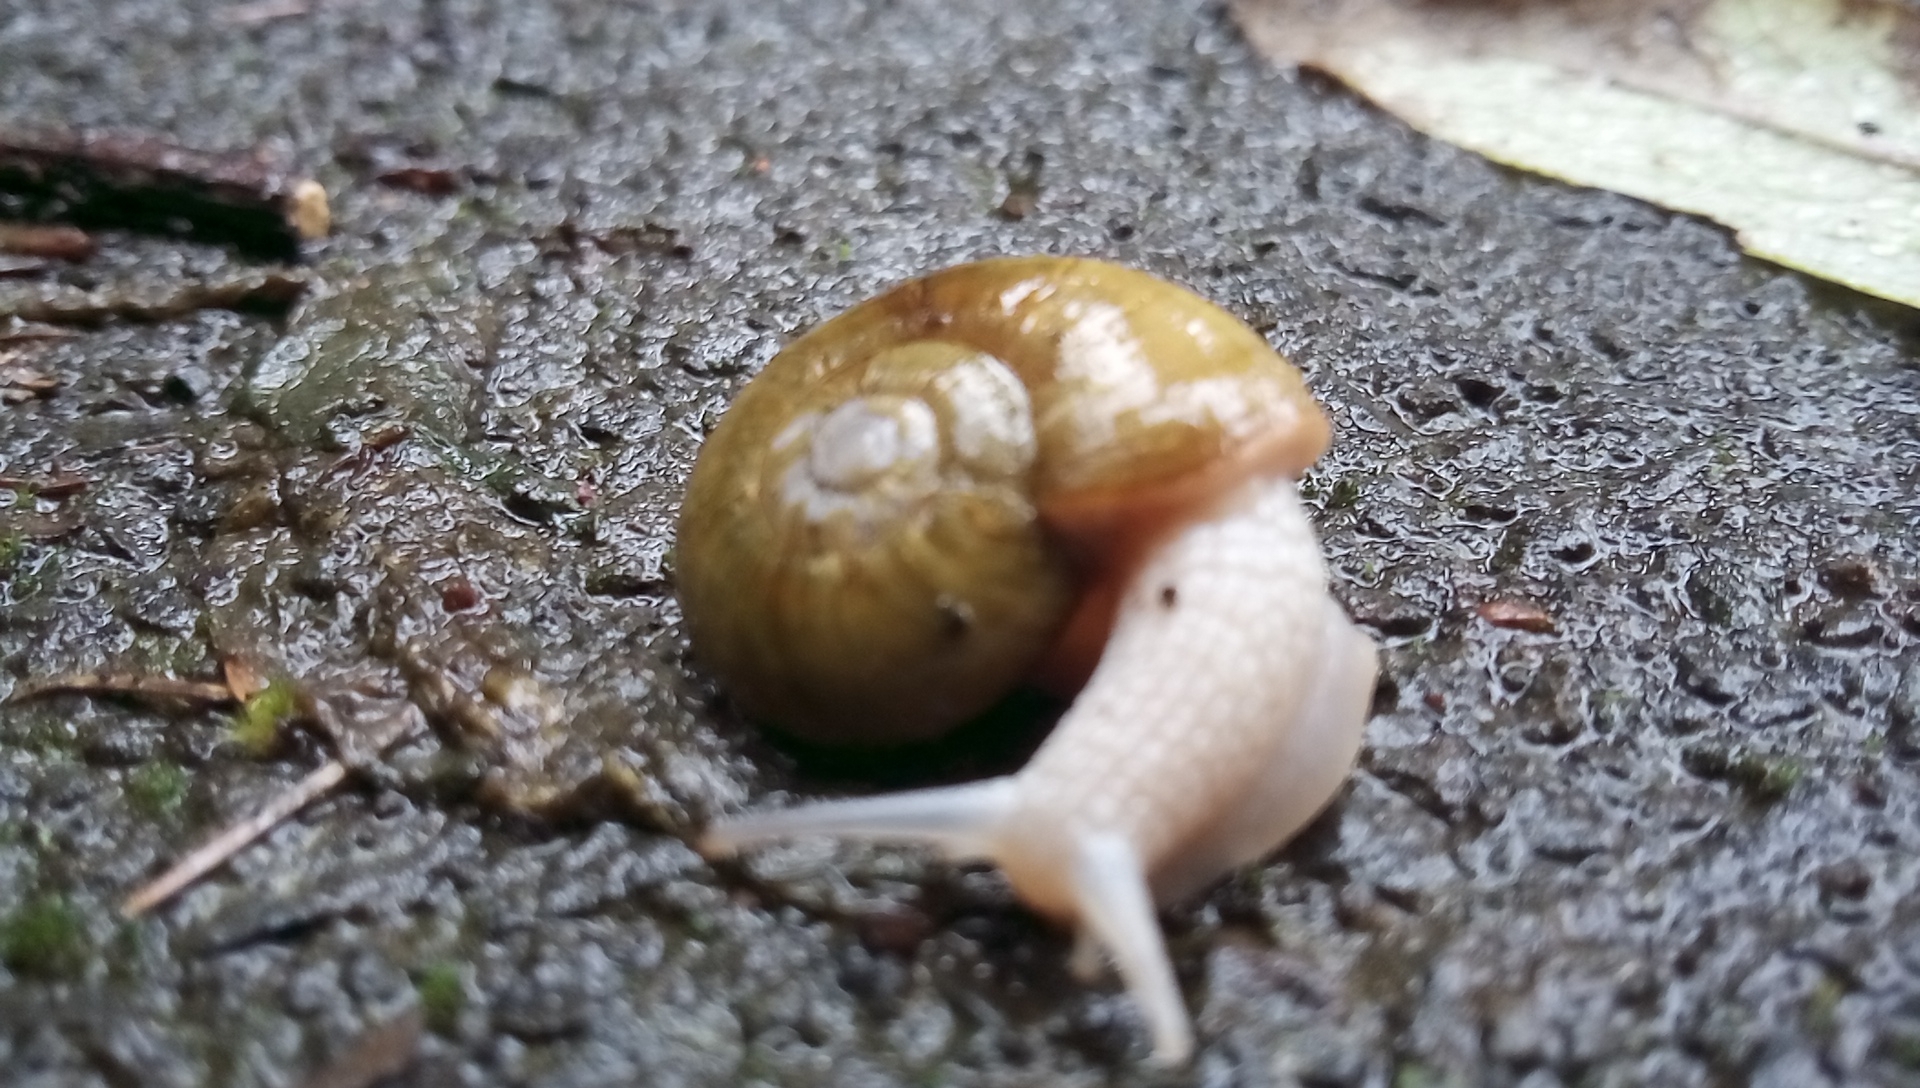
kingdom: Animalia
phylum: Mollusca
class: Gastropoda
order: Stylommatophora
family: Haplotrematidae
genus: Haplotrema
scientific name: Haplotrema vancouverense
